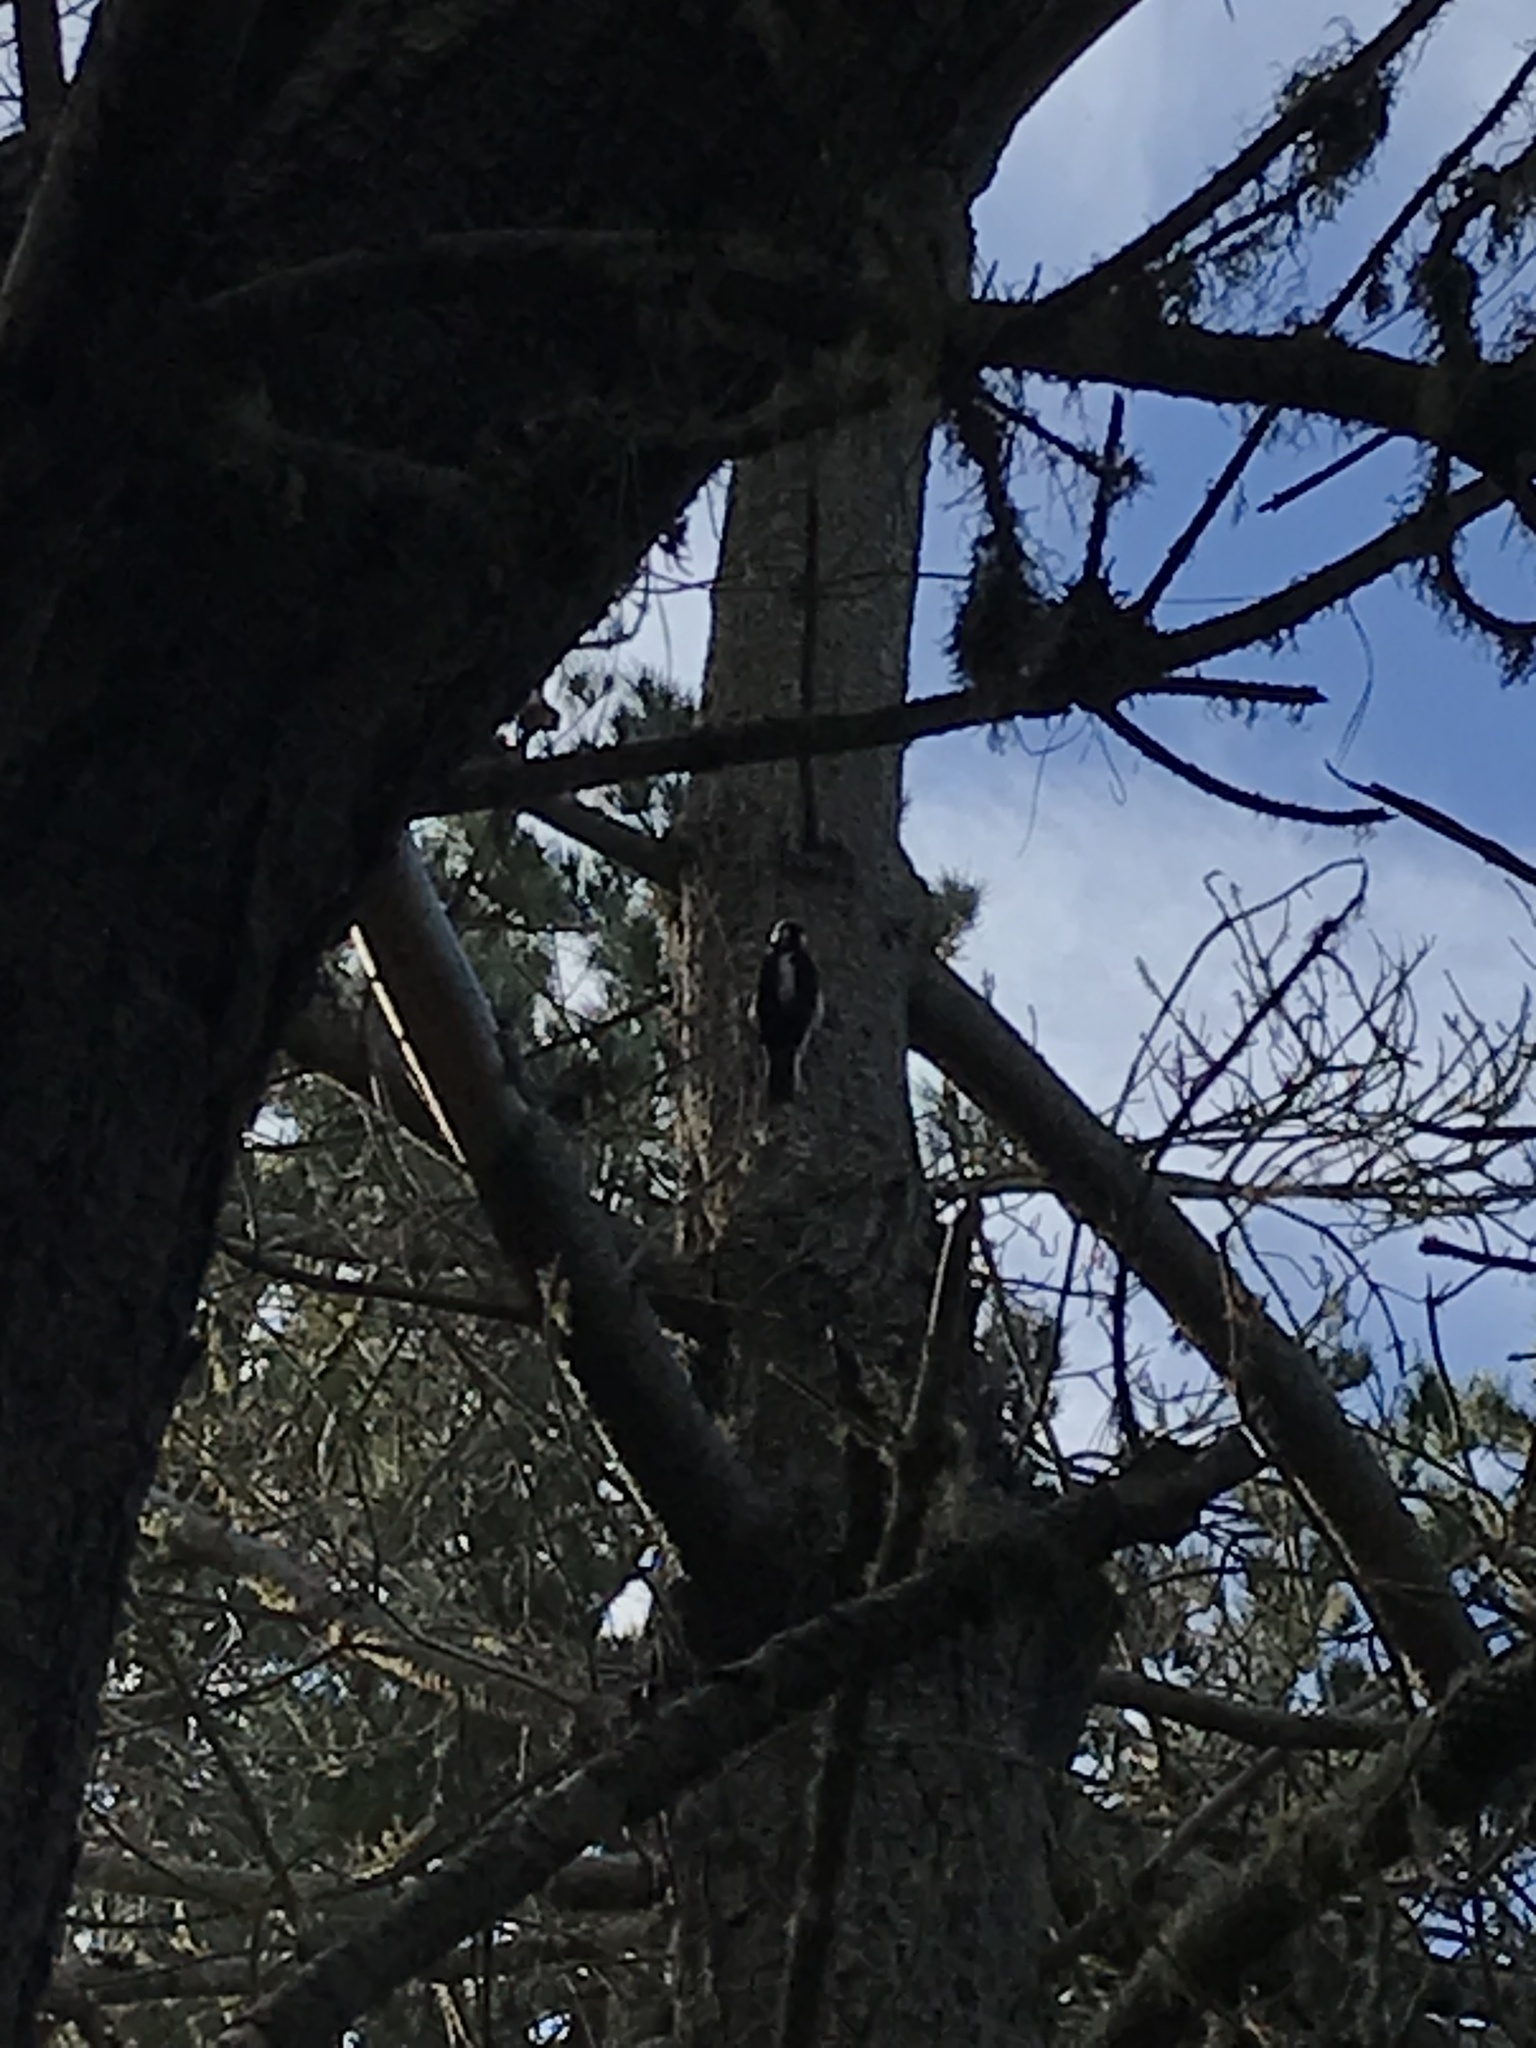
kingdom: Animalia
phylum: Chordata
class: Aves
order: Piciformes
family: Picidae
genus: Leuconotopicus
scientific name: Leuconotopicus villosus
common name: Hairy woodpecker
